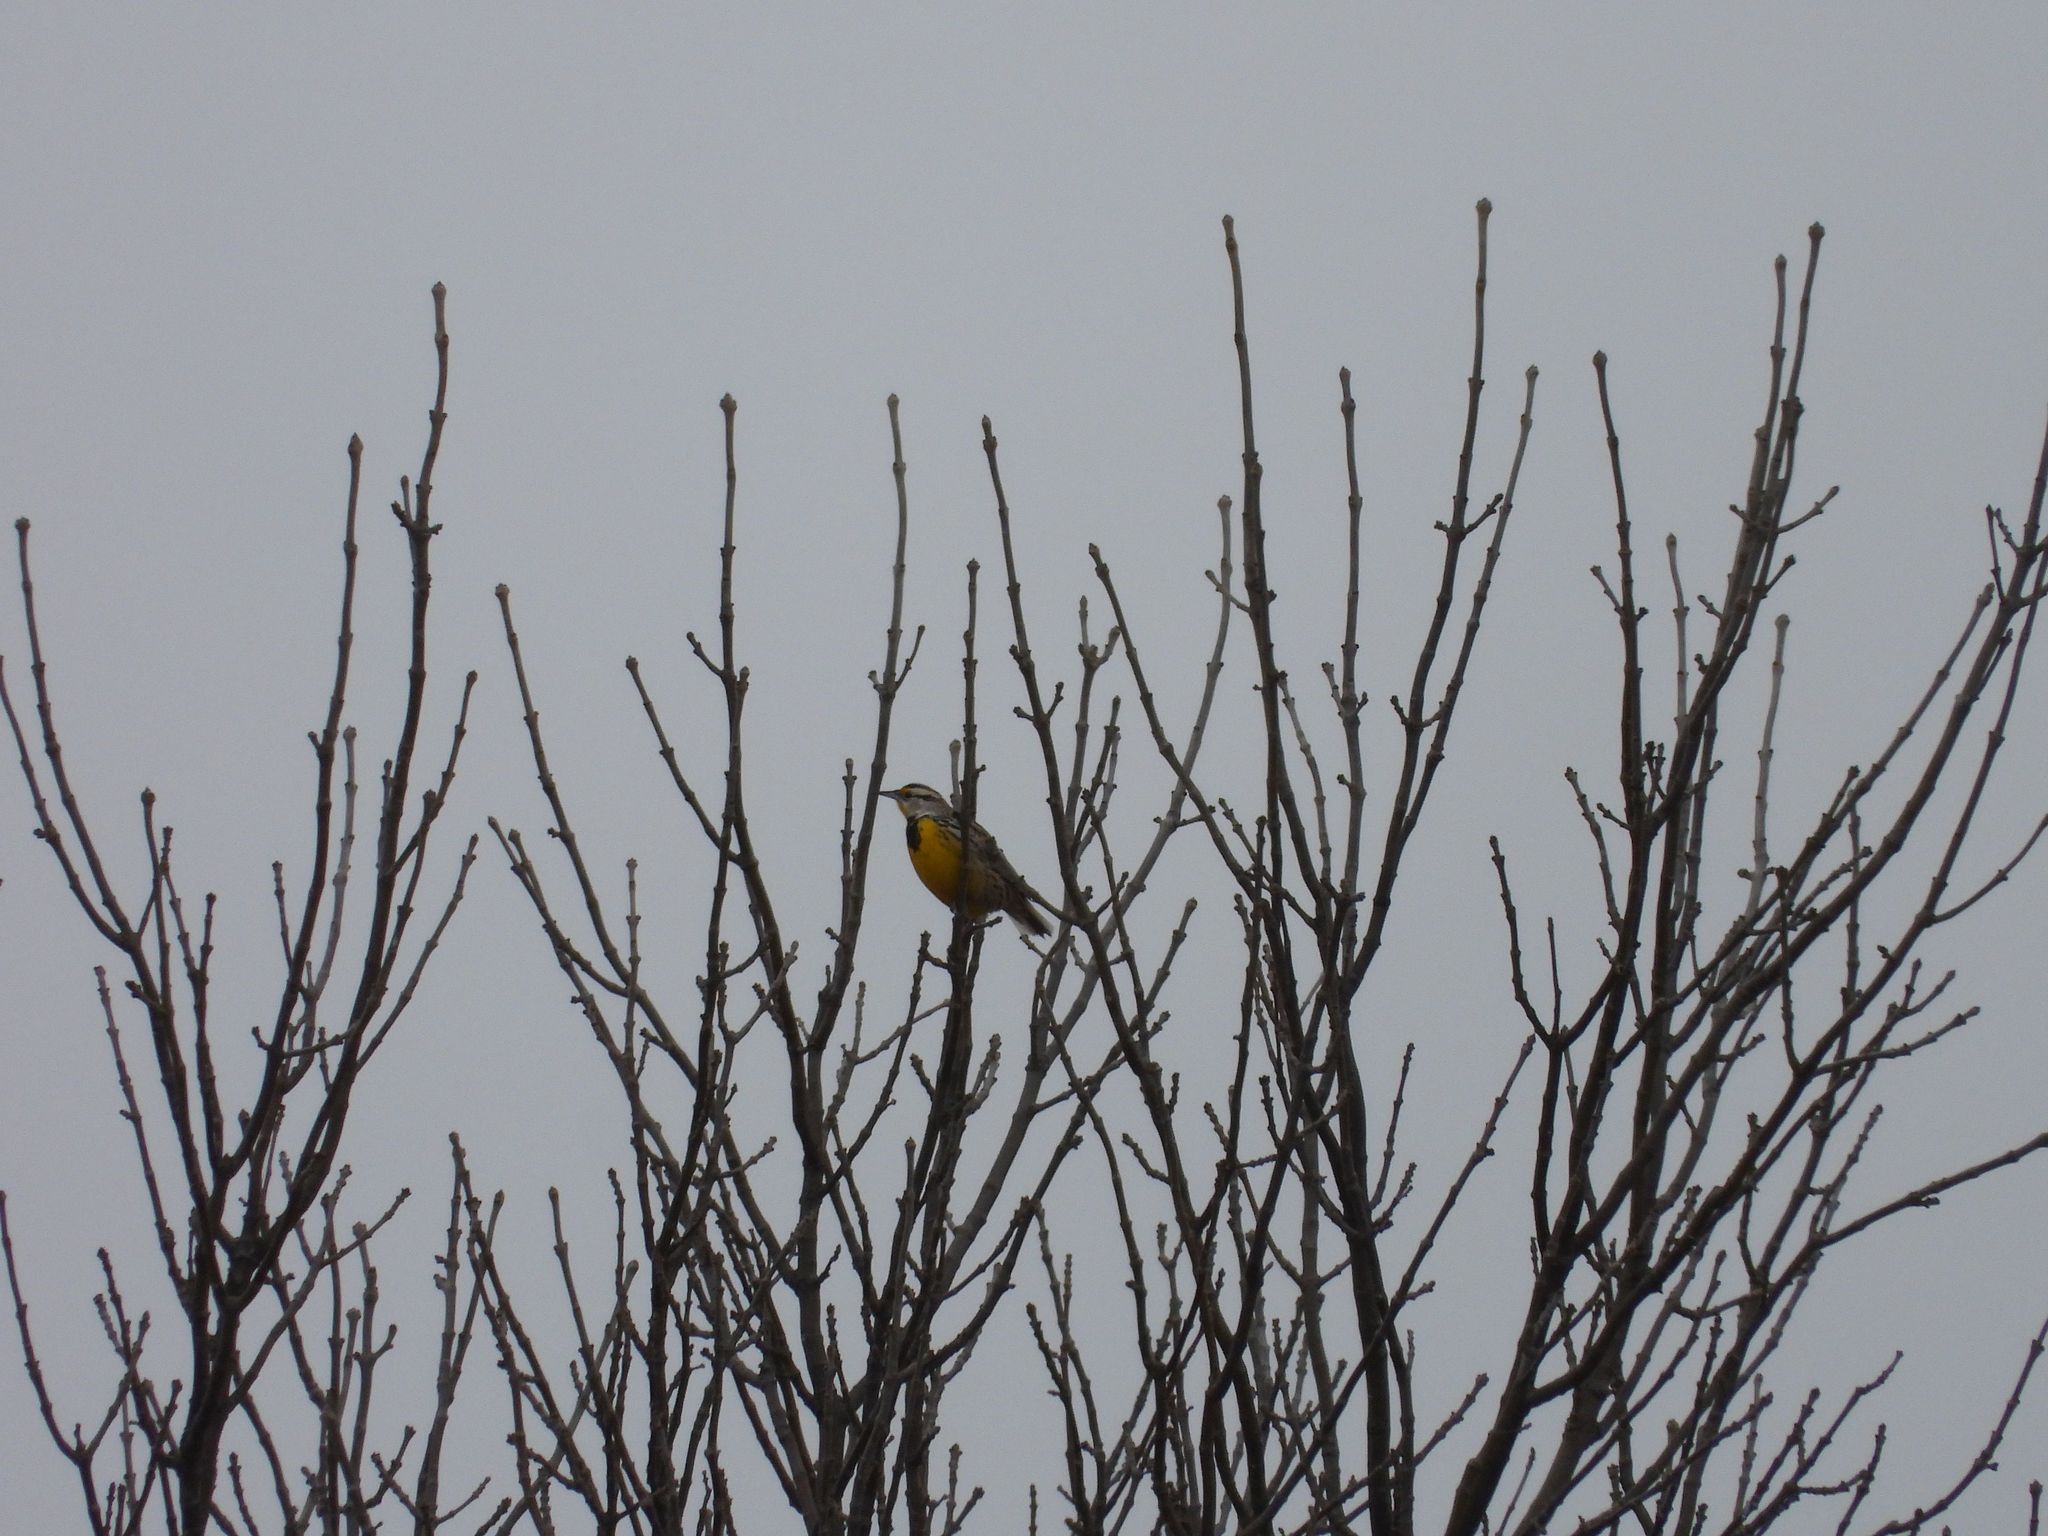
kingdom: Animalia
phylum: Chordata
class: Aves
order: Passeriformes
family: Icteridae
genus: Sturnella
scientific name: Sturnella magna
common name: Eastern meadowlark
